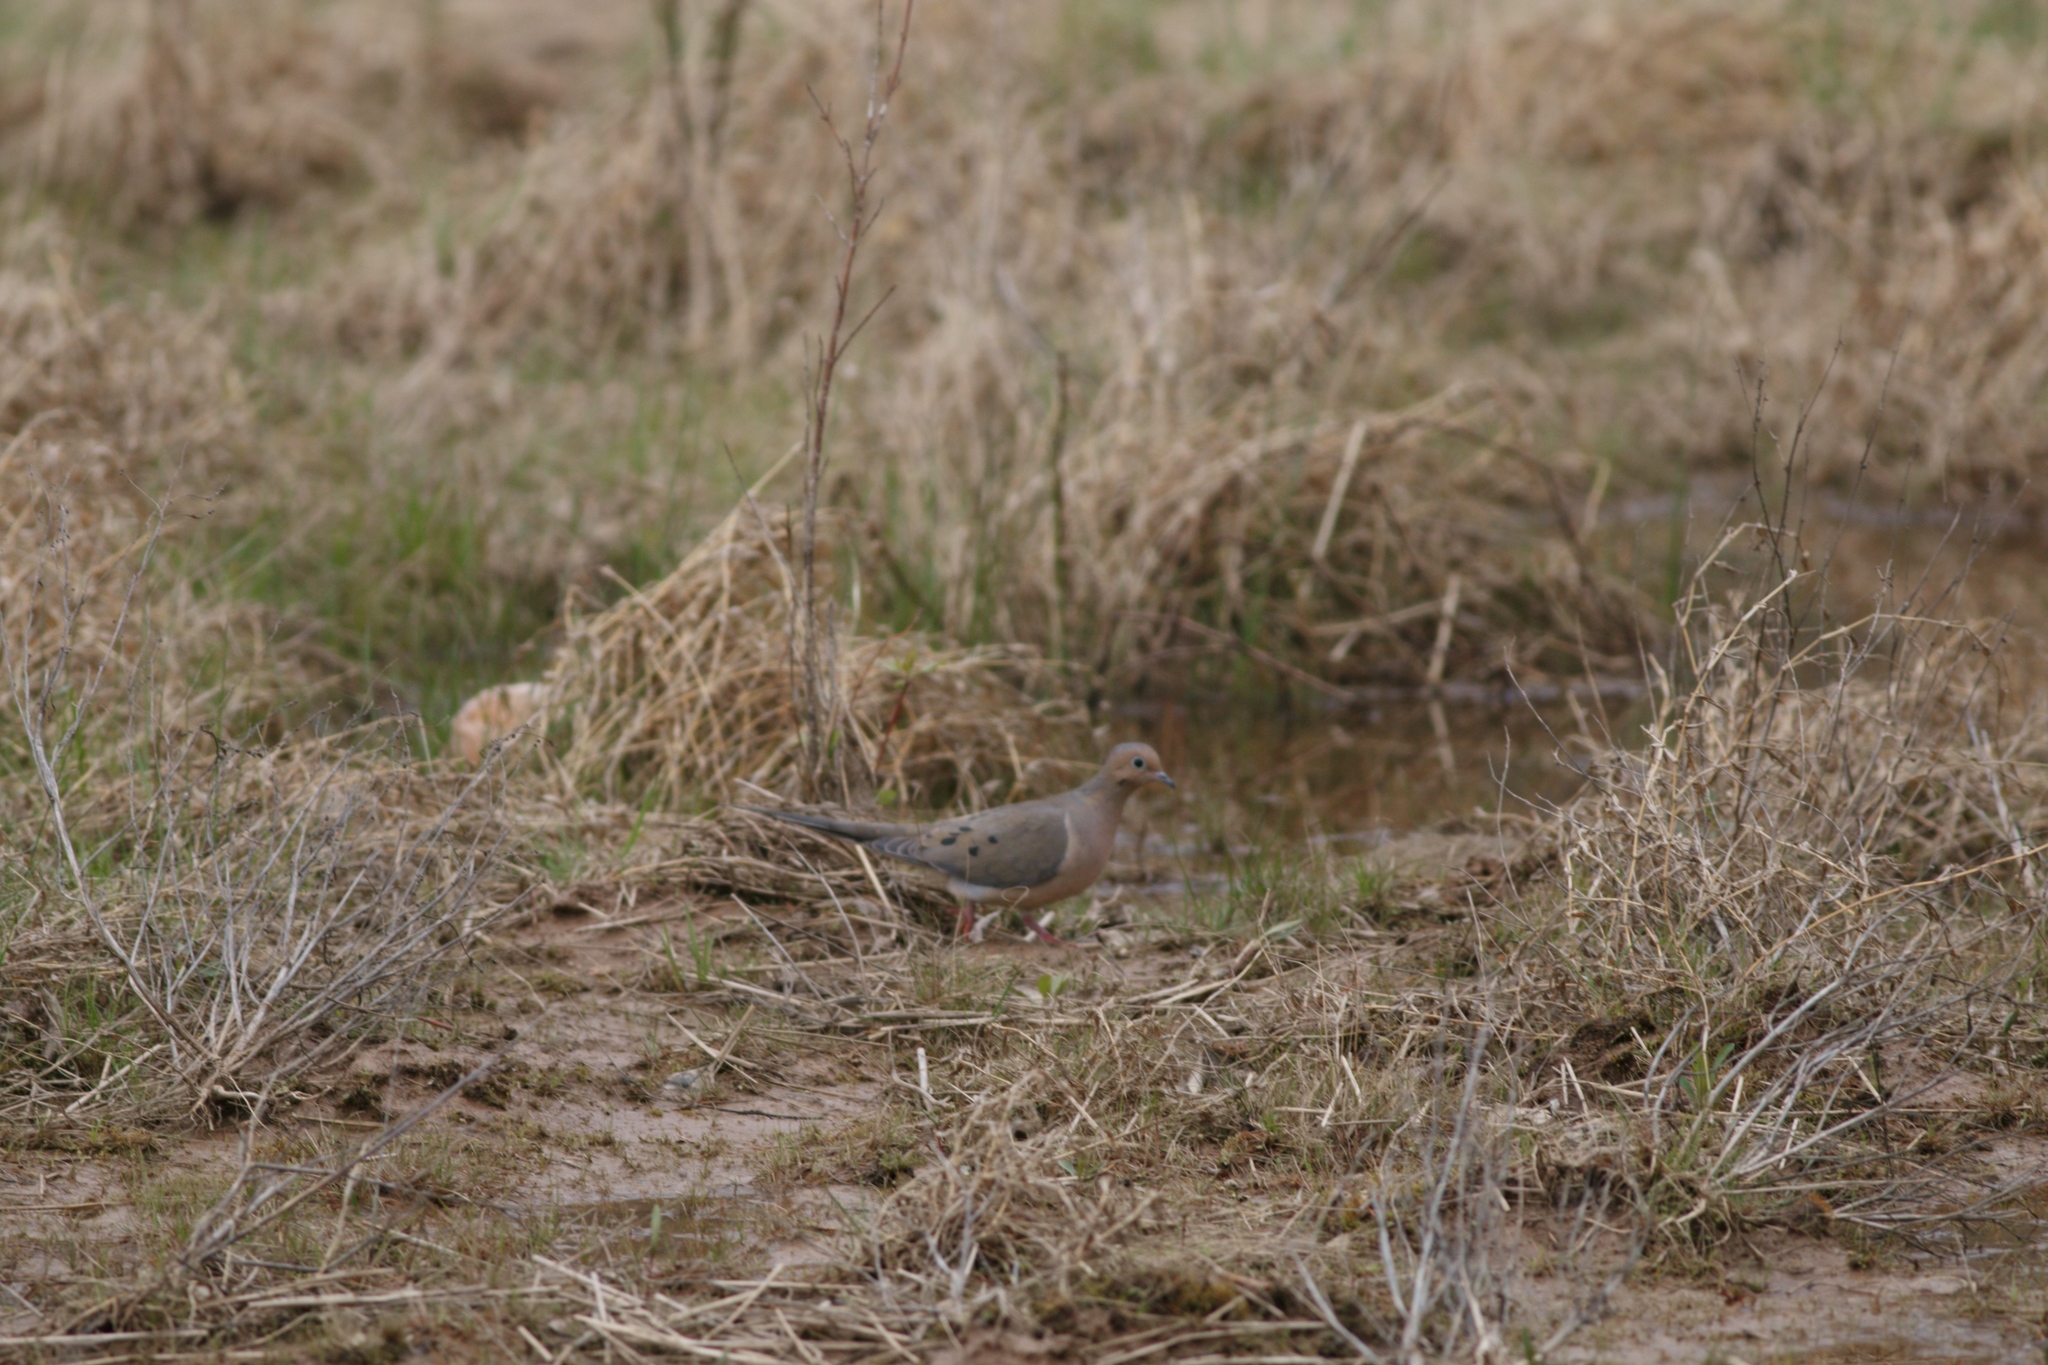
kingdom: Animalia
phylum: Chordata
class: Aves
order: Columbiformes
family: Columbidae
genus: Zenaida
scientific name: Zenaida macroura
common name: Mourning dove
